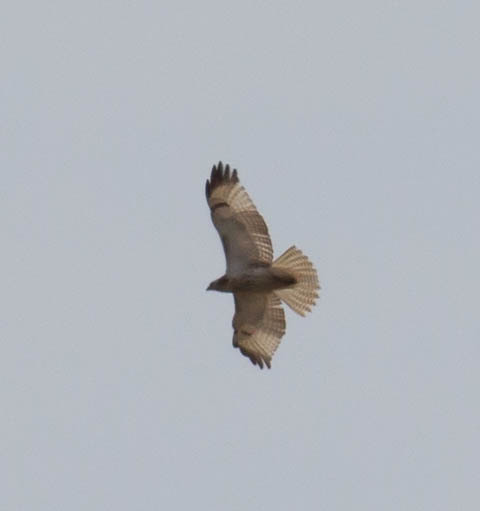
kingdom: Animalia
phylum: Chordata
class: Aves
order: Accipitriformes
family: Accipitridae
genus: Buteo
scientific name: Buteo jamaicensis
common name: Red-tailed hawk
